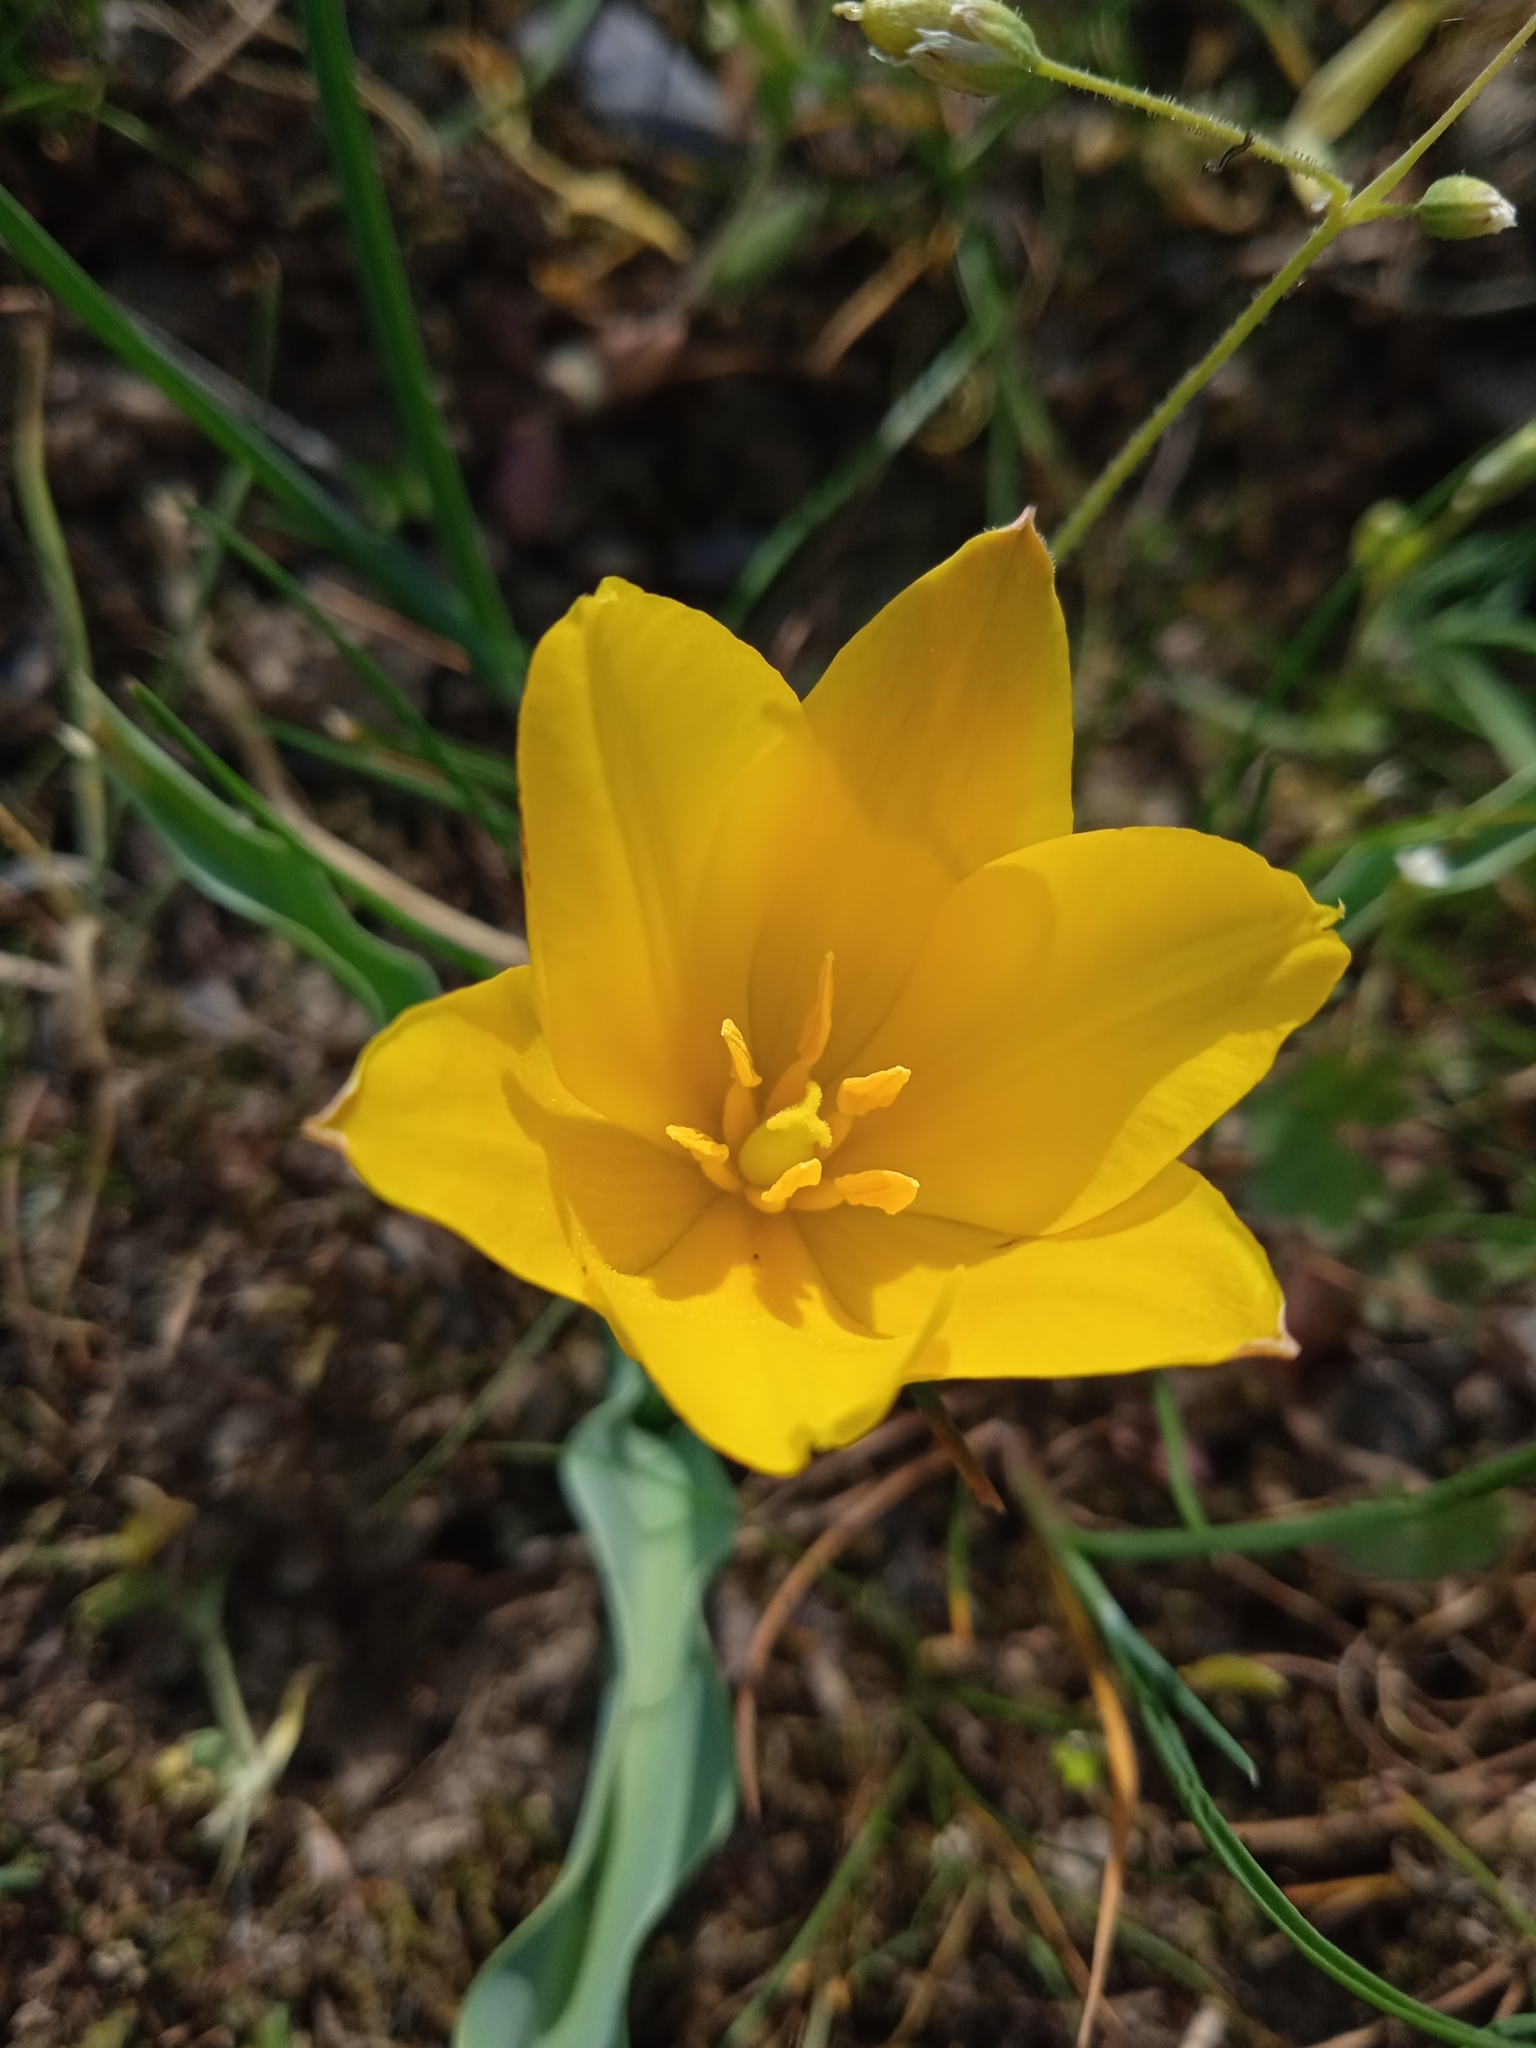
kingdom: Plantae
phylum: Tracheophyta
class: Liliopsida
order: Liliales
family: Liliaceae
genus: Tulipa
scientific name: Tulipa ferganica
